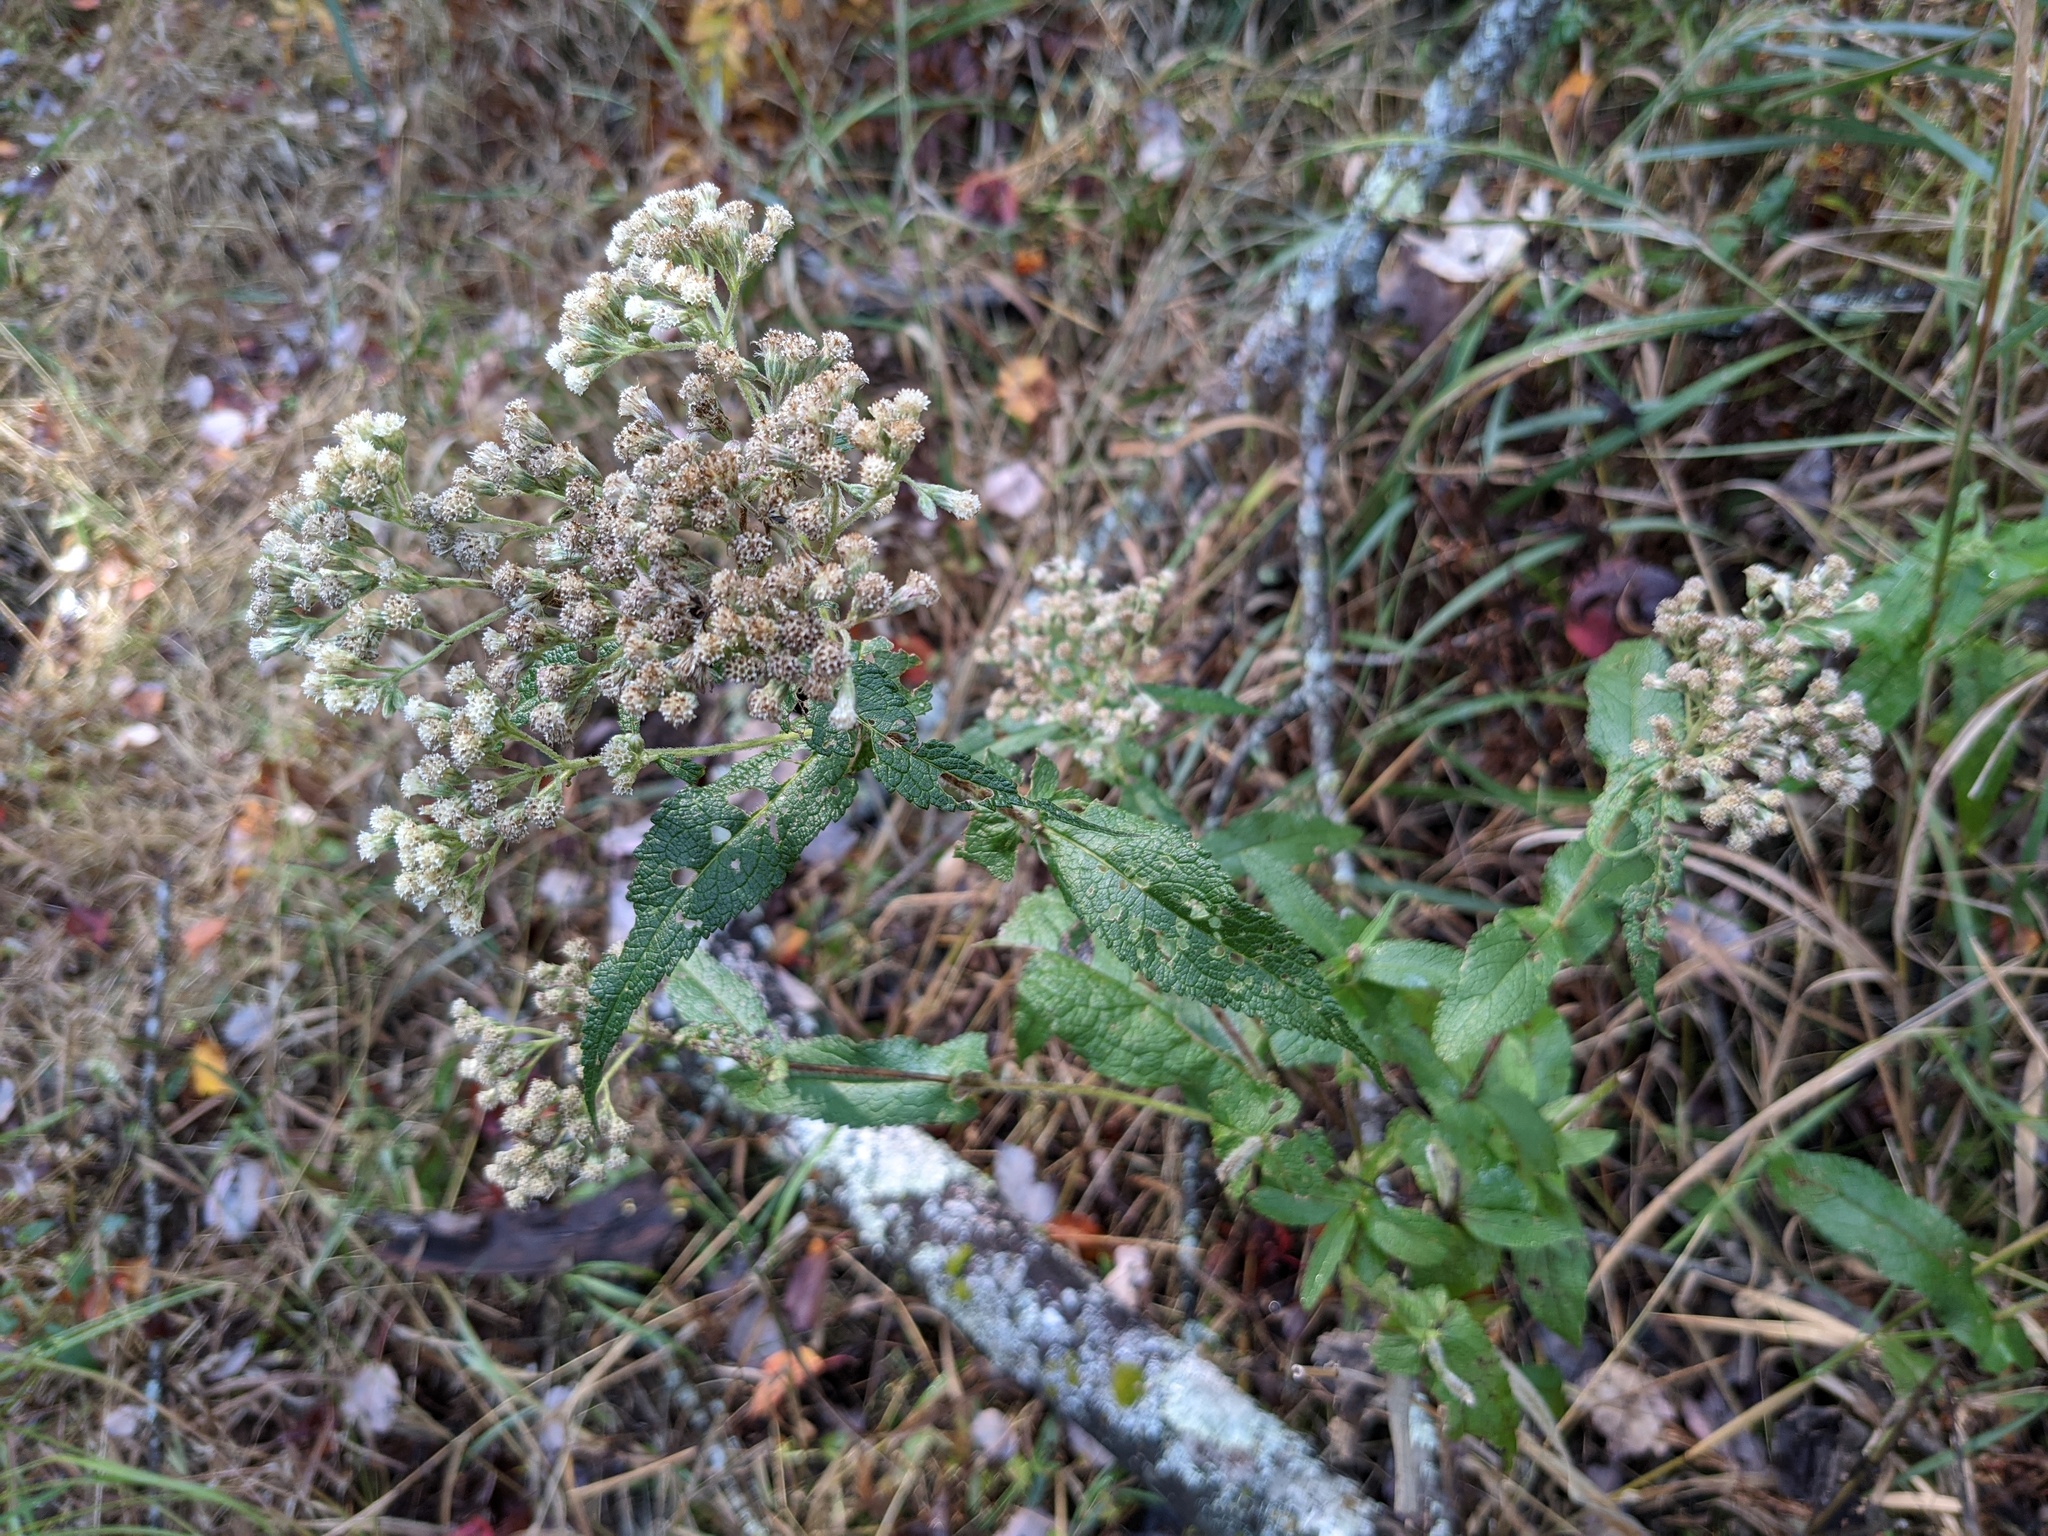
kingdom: Plantae
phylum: Tracheophyta
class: Magnoliopsida
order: Asterales
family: Asteraceae
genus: Eupatorium
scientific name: Eupatorium perfoliatum
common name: Boneset
